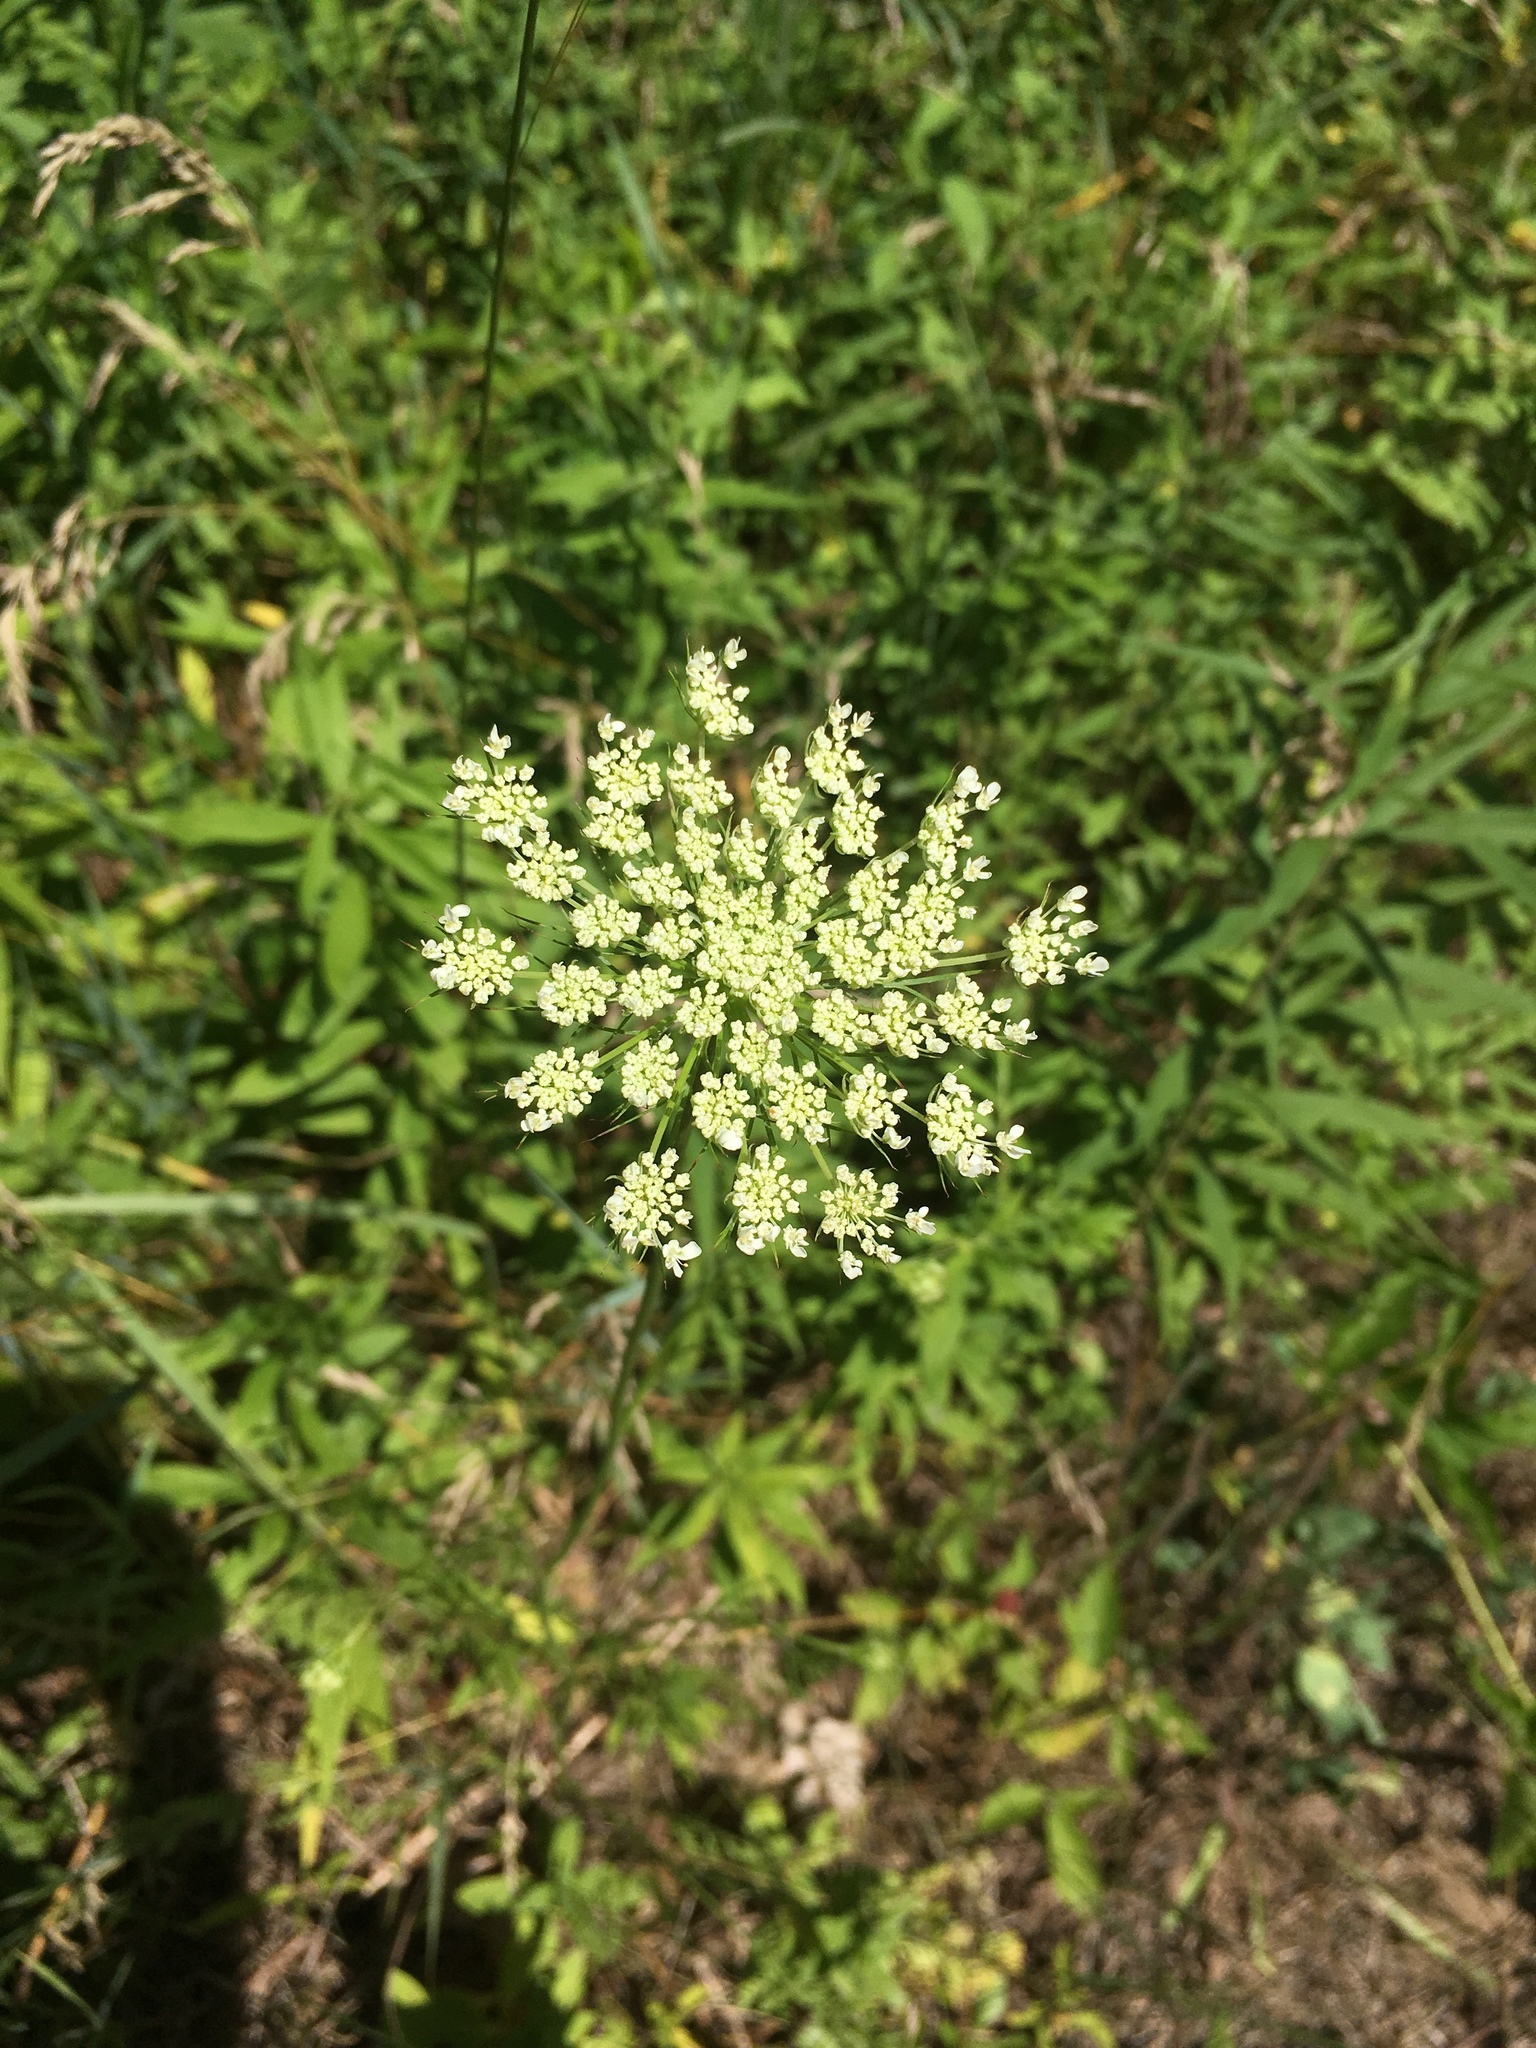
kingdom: Plantae
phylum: Tracheophyta
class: Magnoliopsida
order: Apiales
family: Apiaceae
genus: Daucus
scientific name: Daucus carota
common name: Wild carrot
